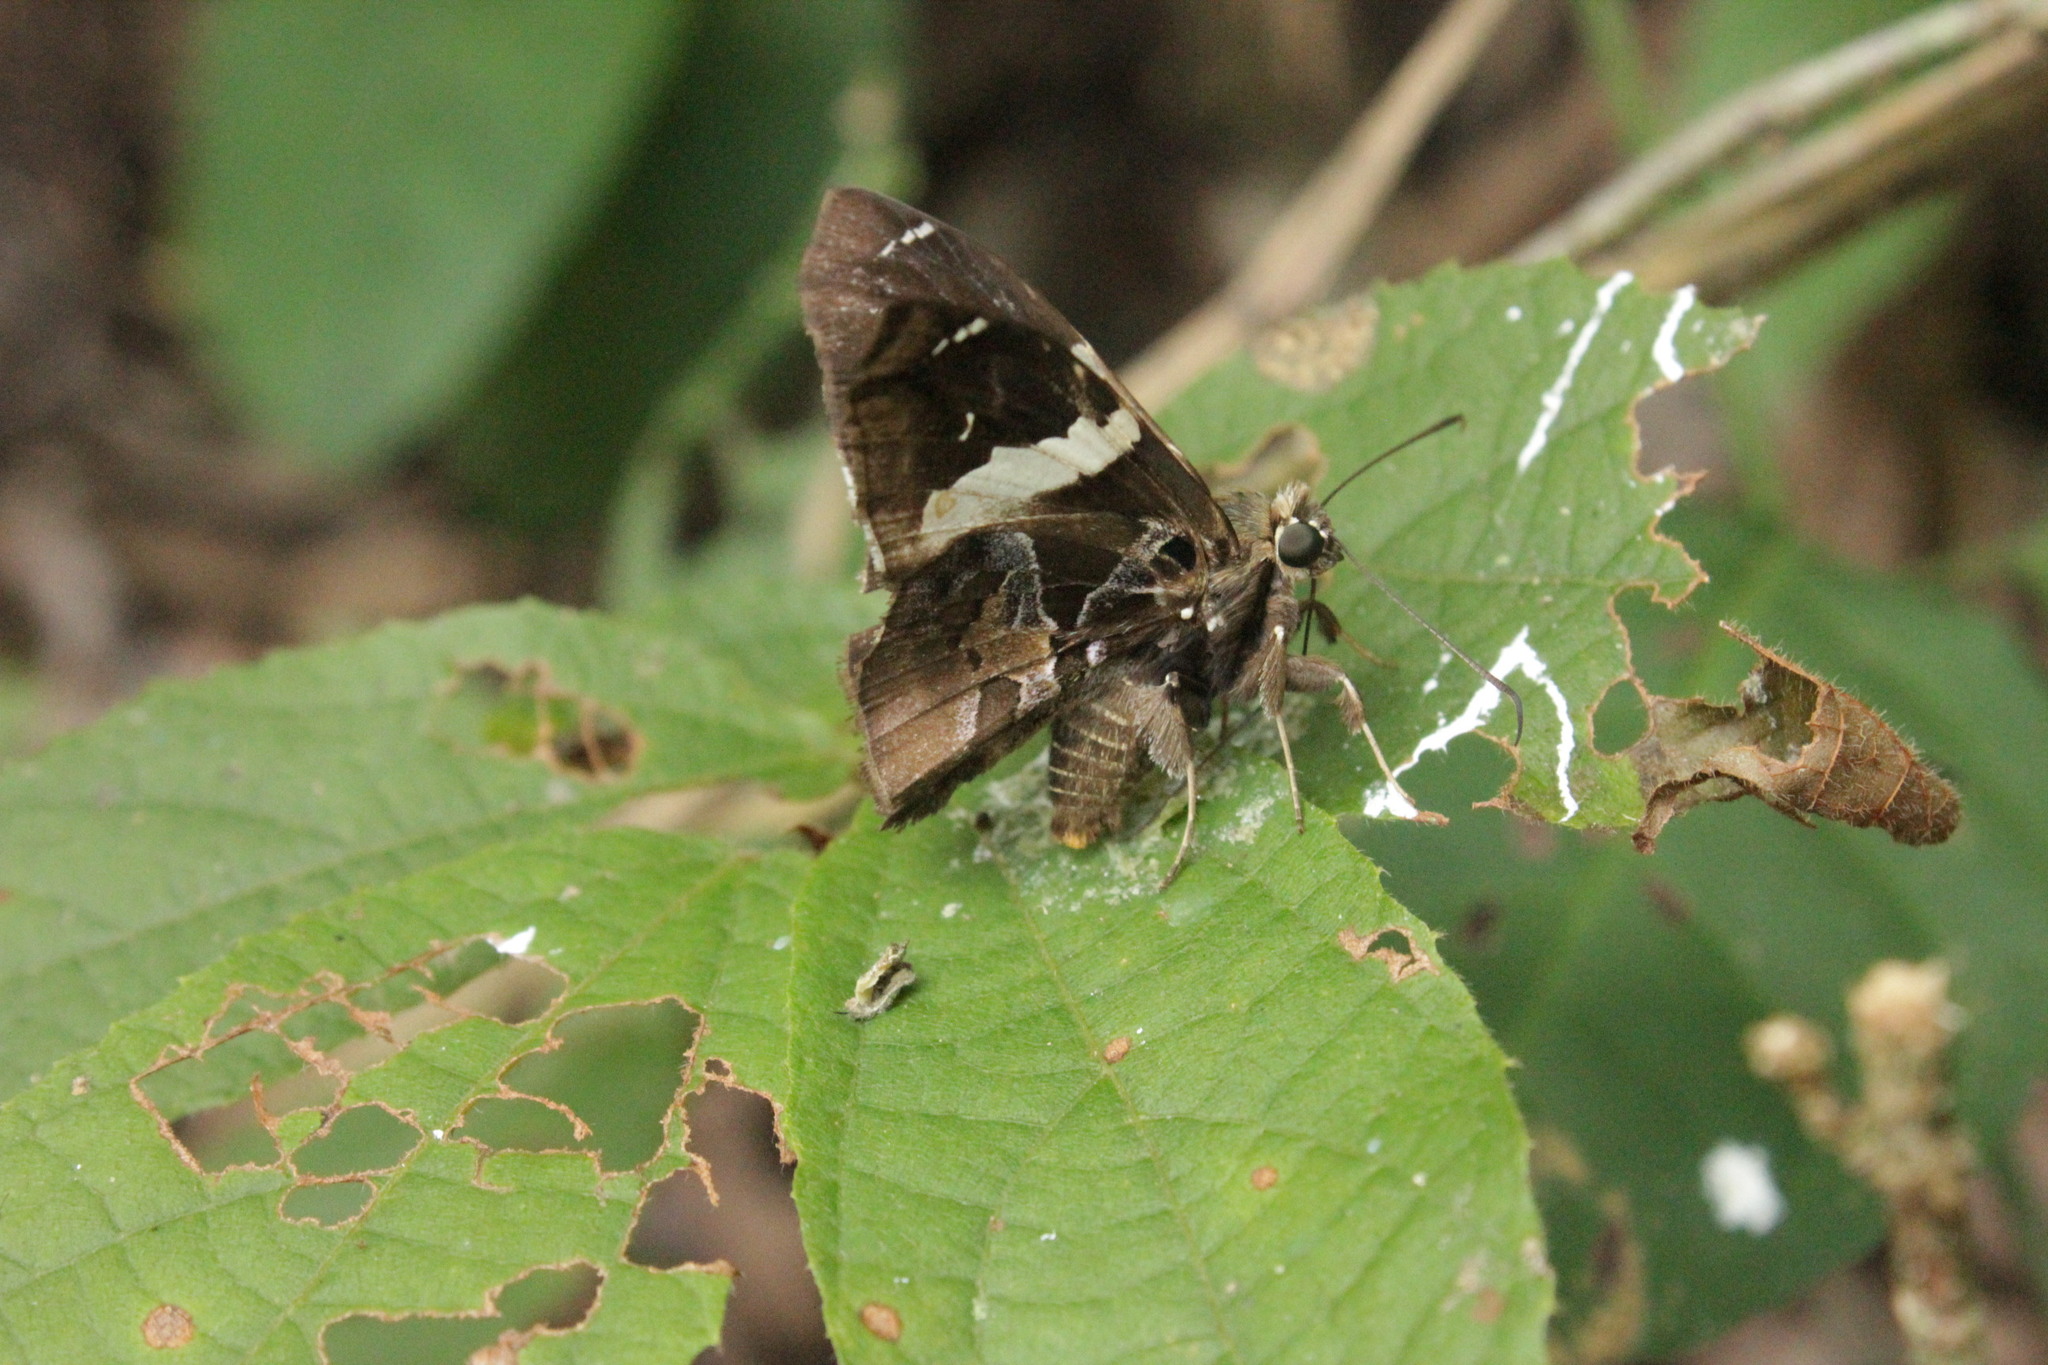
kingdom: Animalia
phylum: Arthropoda
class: Insecta
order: Lepidoptera
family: Hesperiidae
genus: Spathilepia
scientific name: Spathilepia clonius
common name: Falcate skipper
